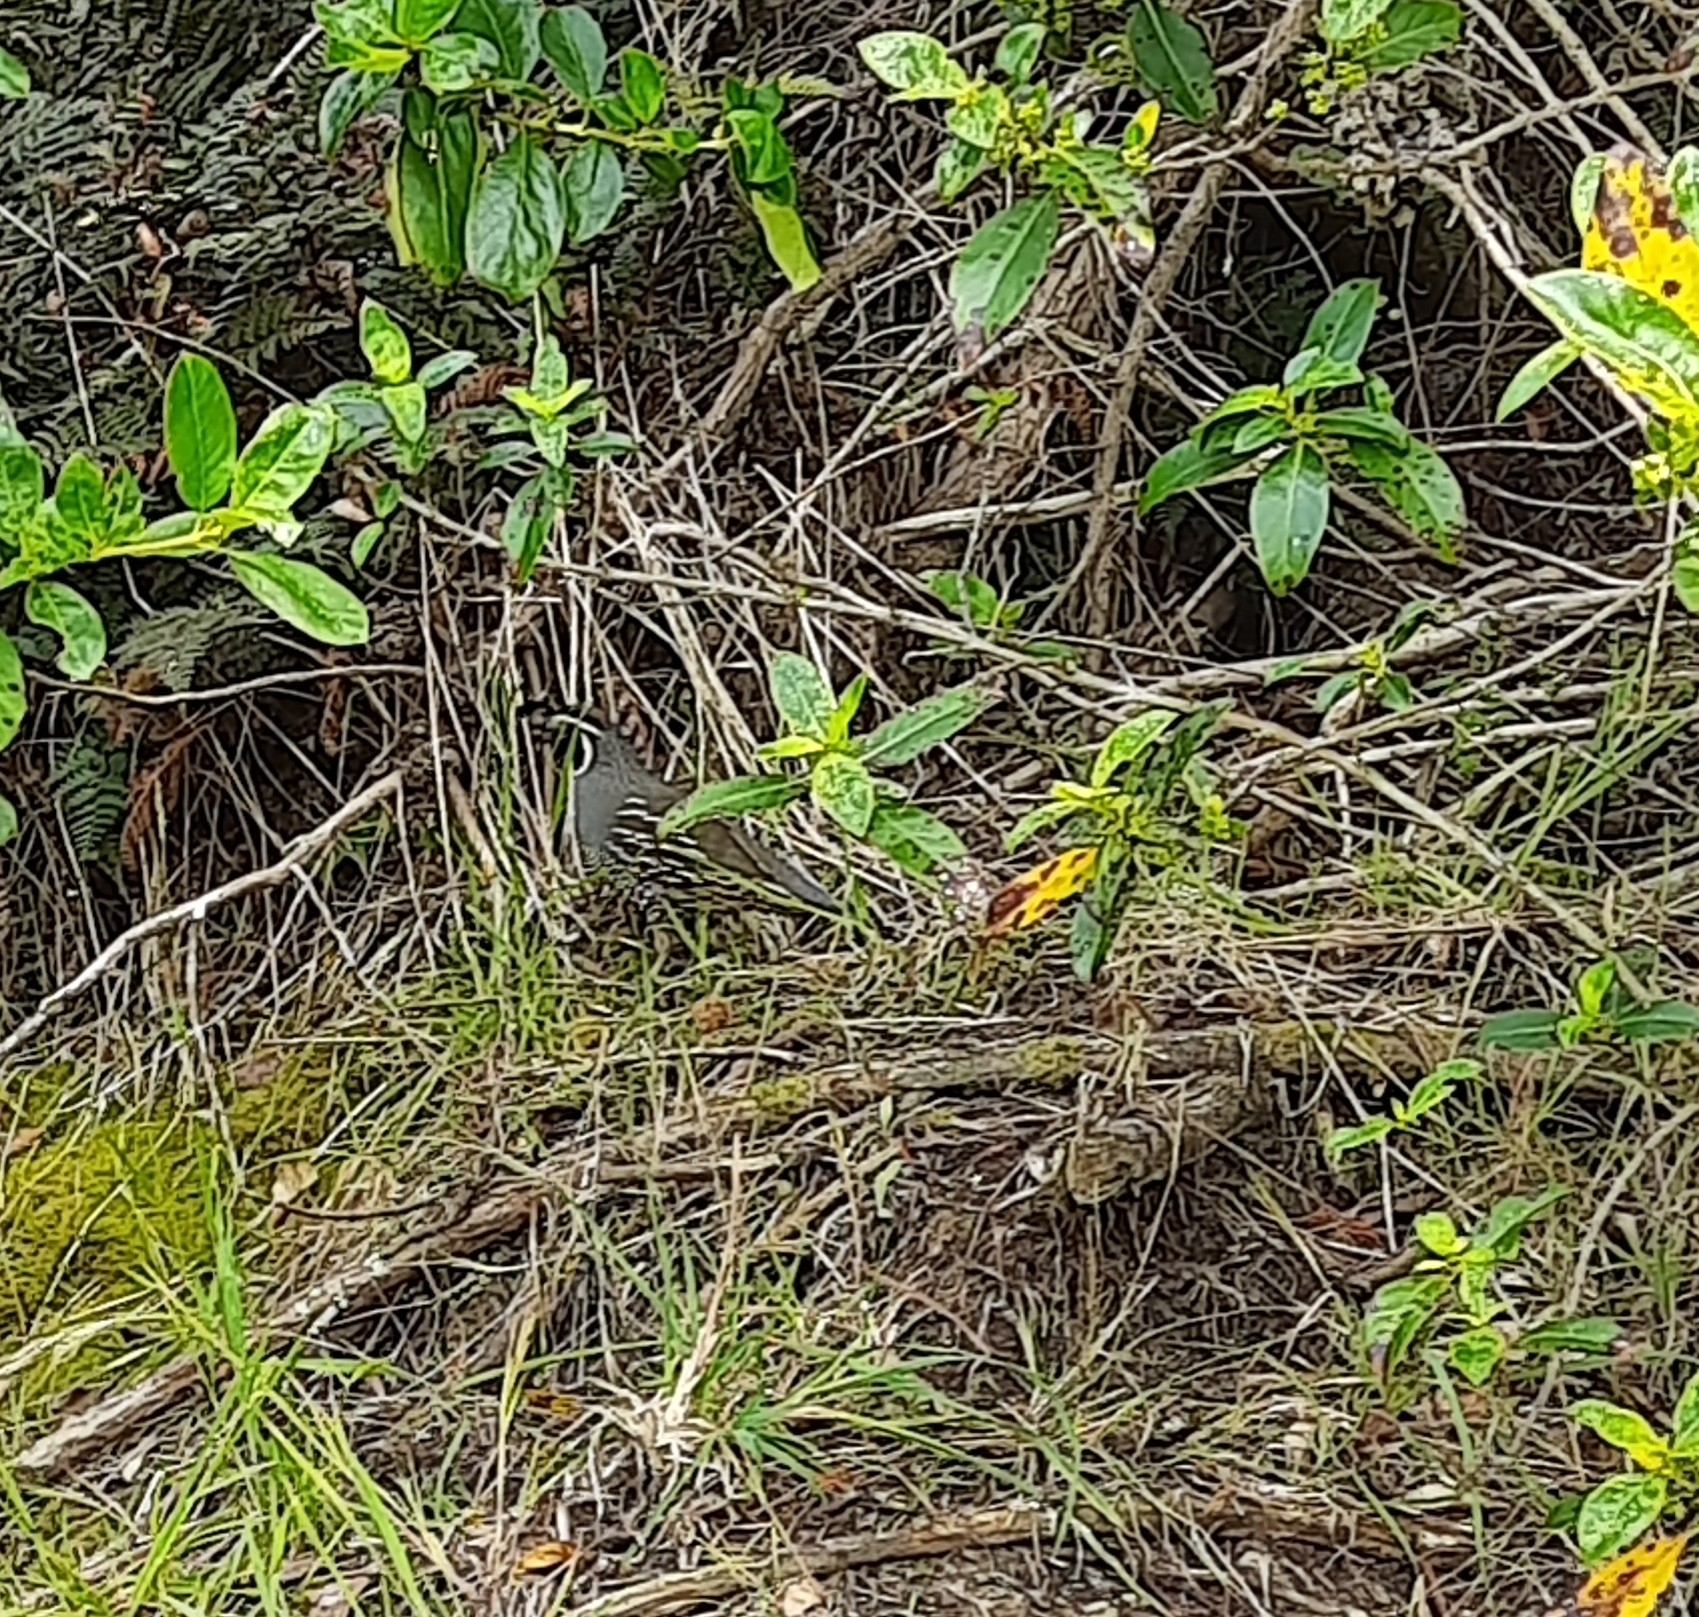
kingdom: Animalia
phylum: Chordata
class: Aves
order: Galliformes
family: Odontophoridae
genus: Callipepla
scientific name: Callipepla californica
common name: California quail
